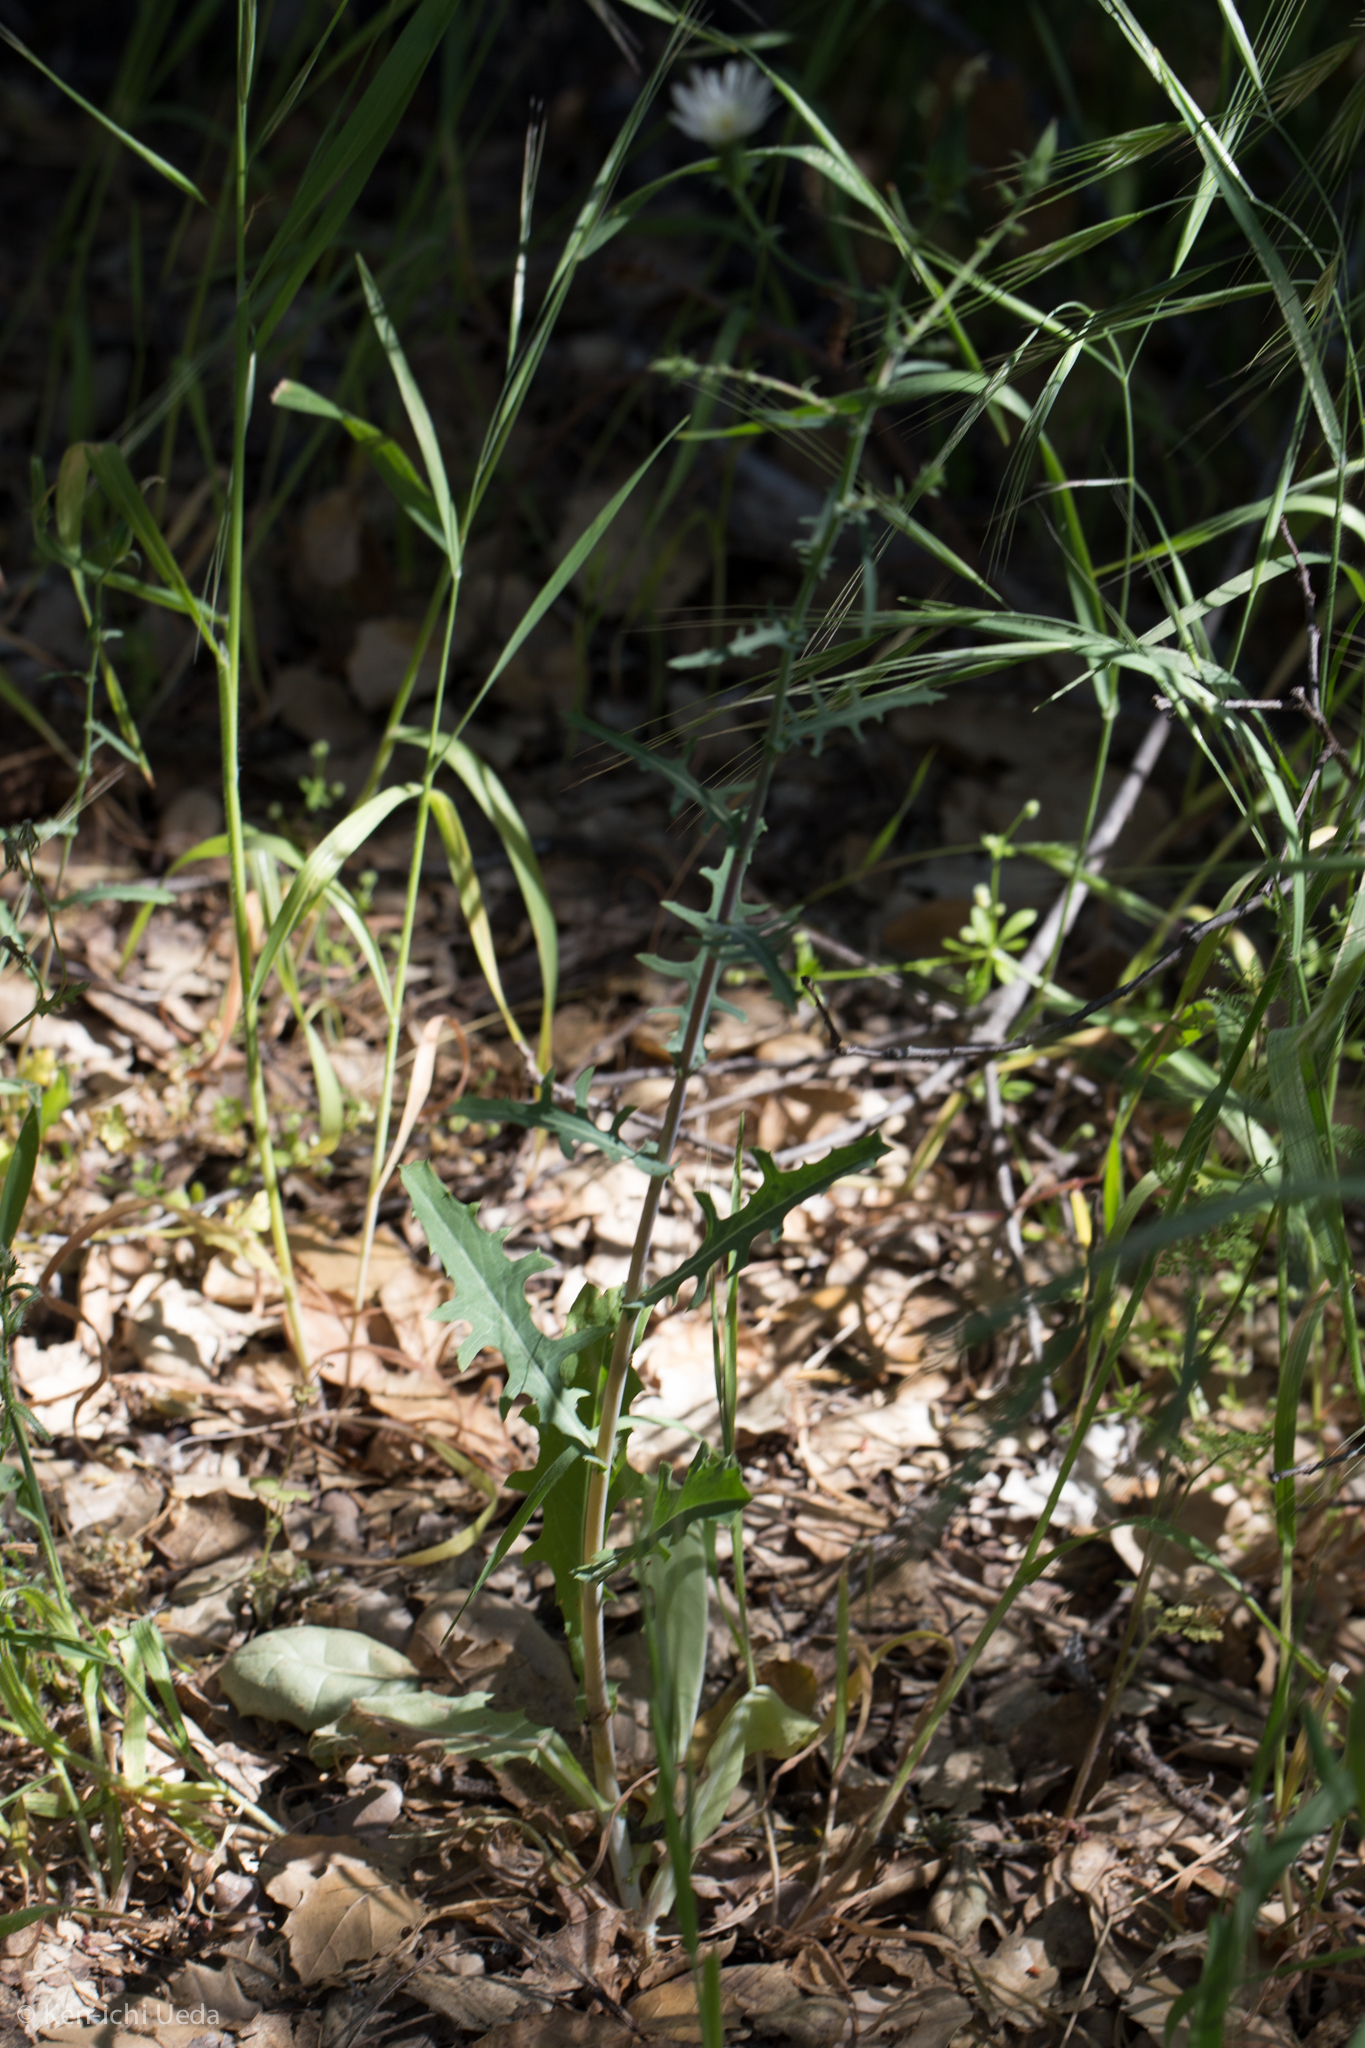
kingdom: Plantae
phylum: Tracheophyta
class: Magnoliopsida
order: Asterales
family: Asteraceae
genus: Rafinesquia
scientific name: Rafinesquia californica
